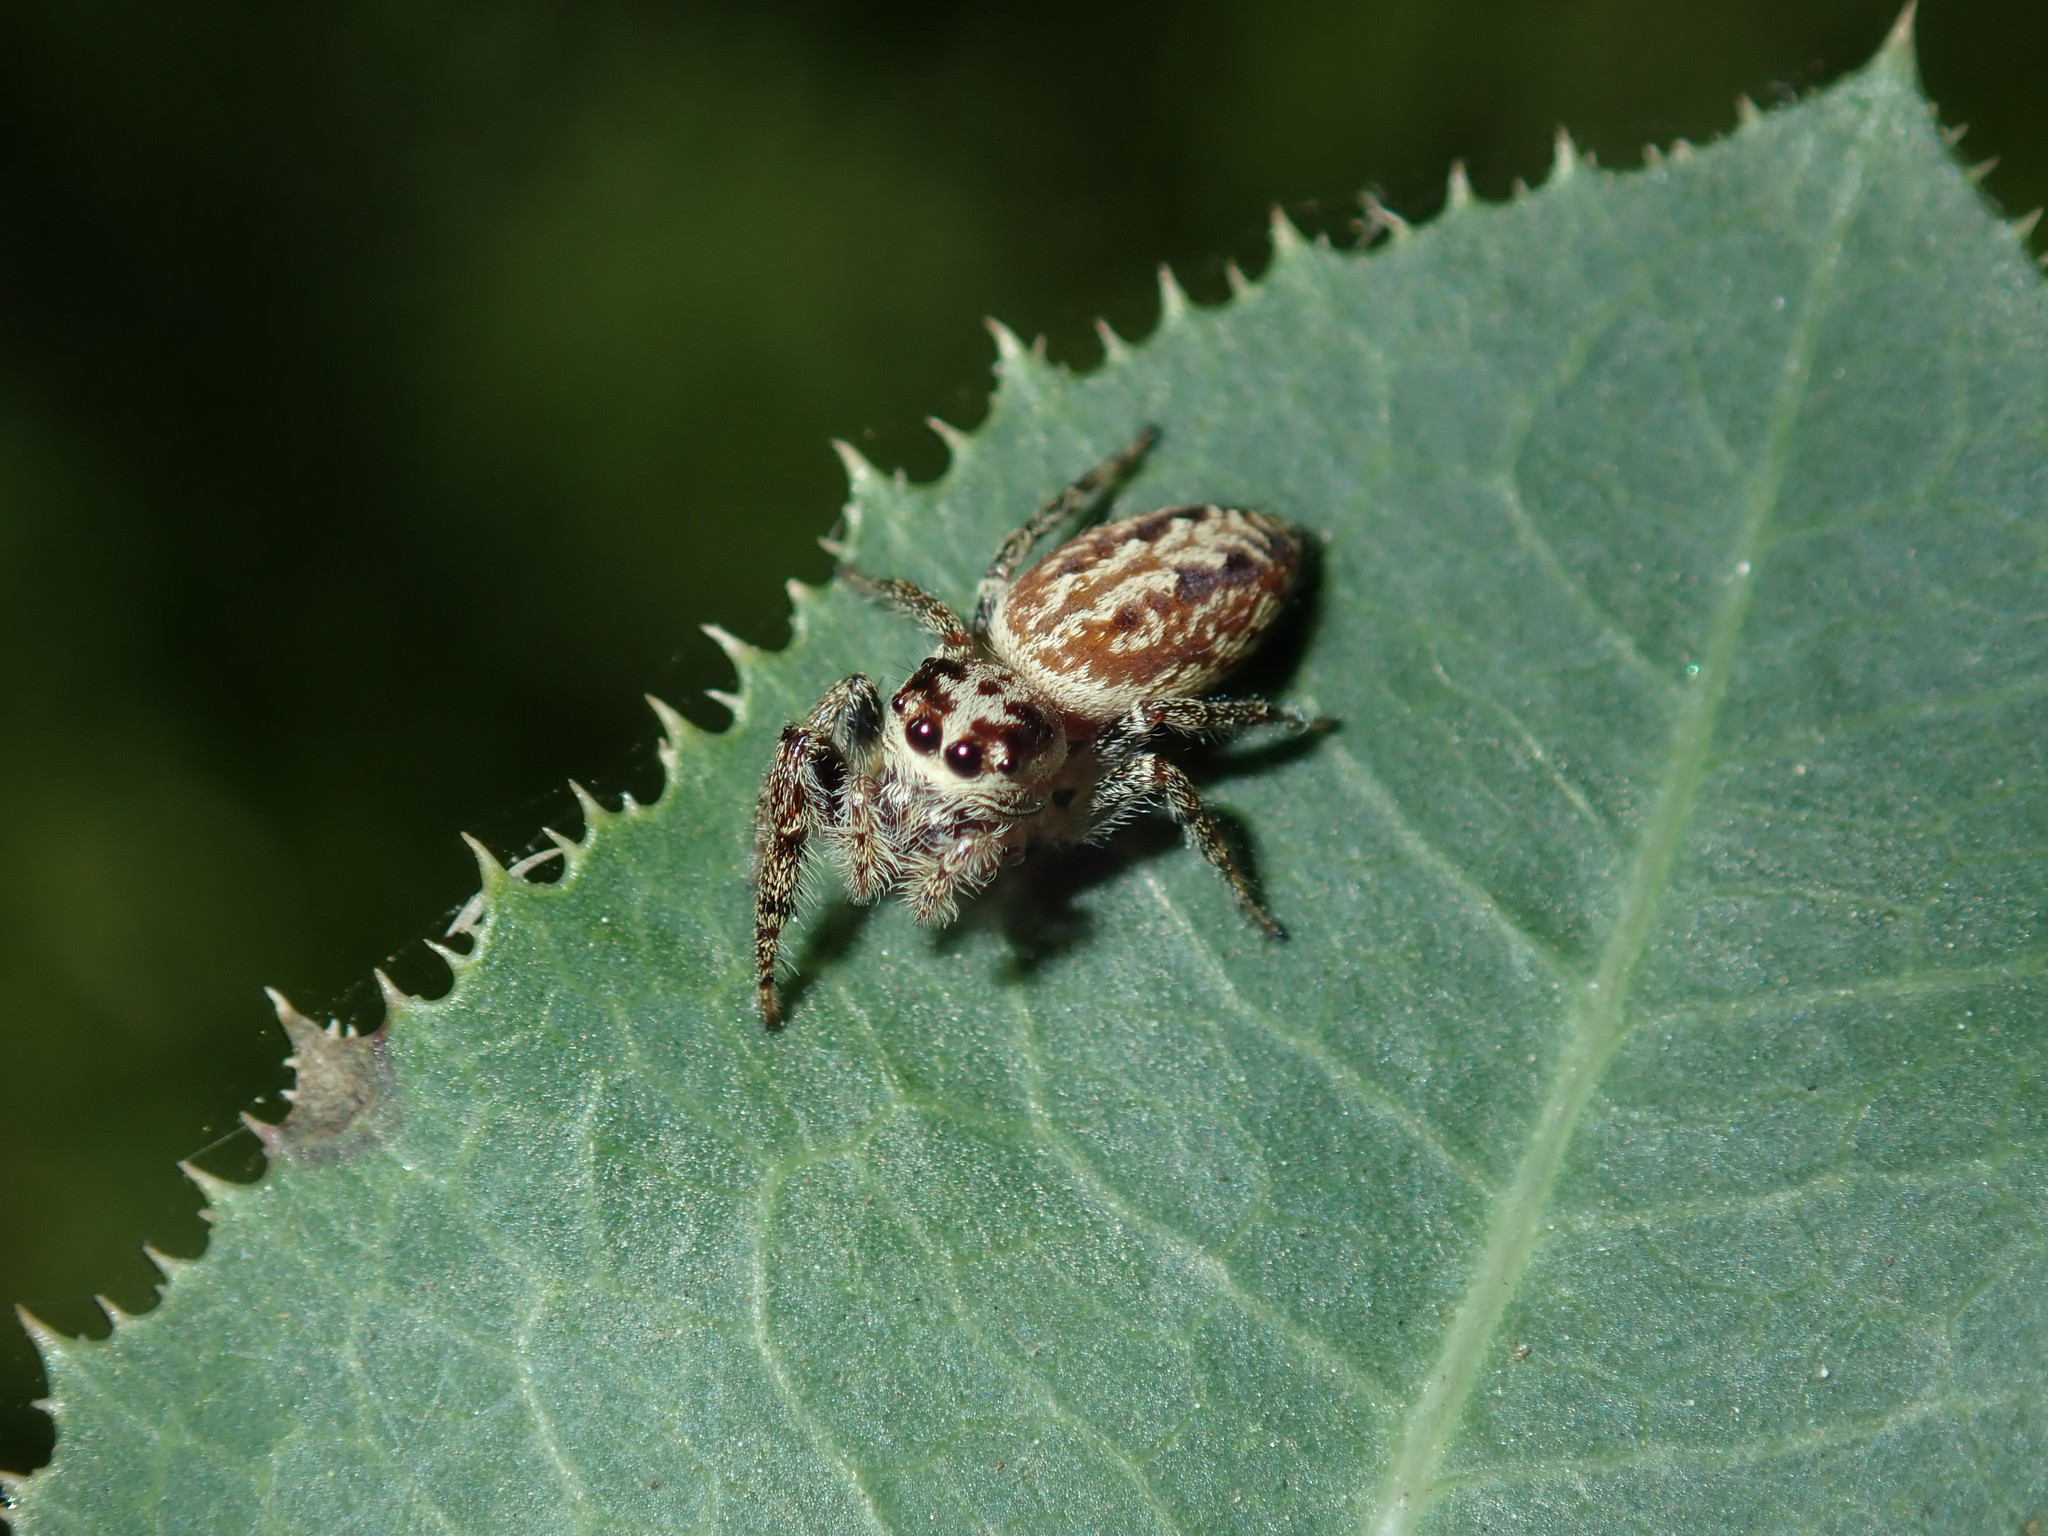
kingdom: Animalia
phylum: Arthropoda
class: Arachnida
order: Araneae
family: Salticidae
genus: Opisthoncus
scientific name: Opisthoncus serratofasciatus
